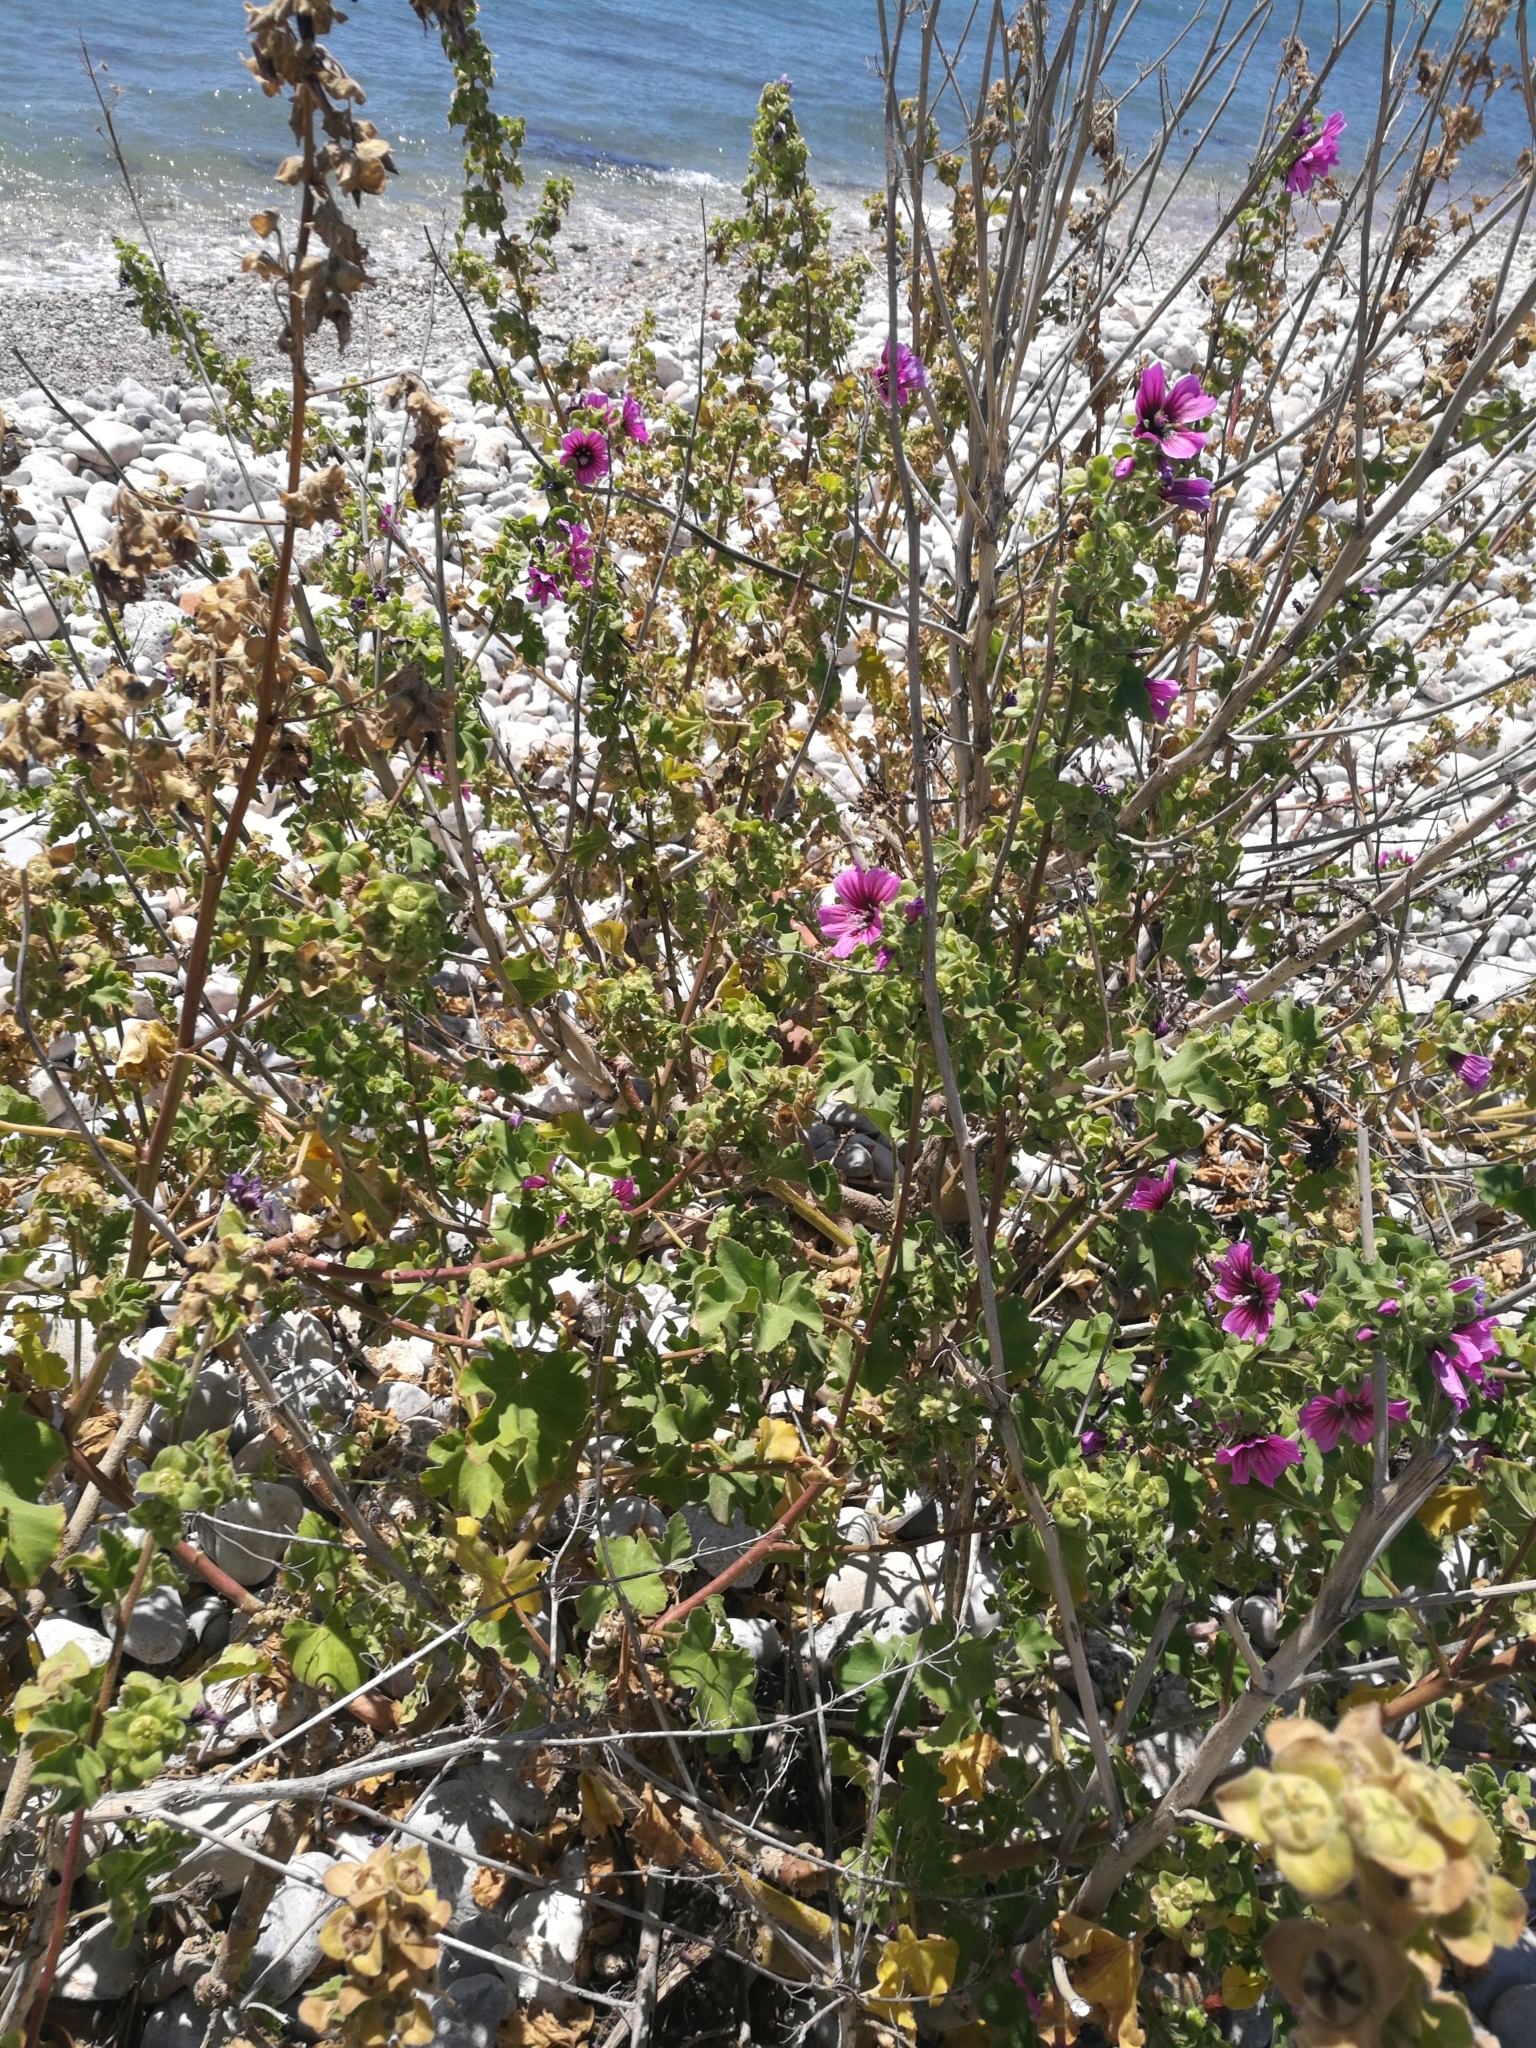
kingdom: Plantae
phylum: Tracheophyta
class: Magnoliopsida
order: Malvales
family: Malvaceae
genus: Malva
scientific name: Malva arborea
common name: Tree mallow
